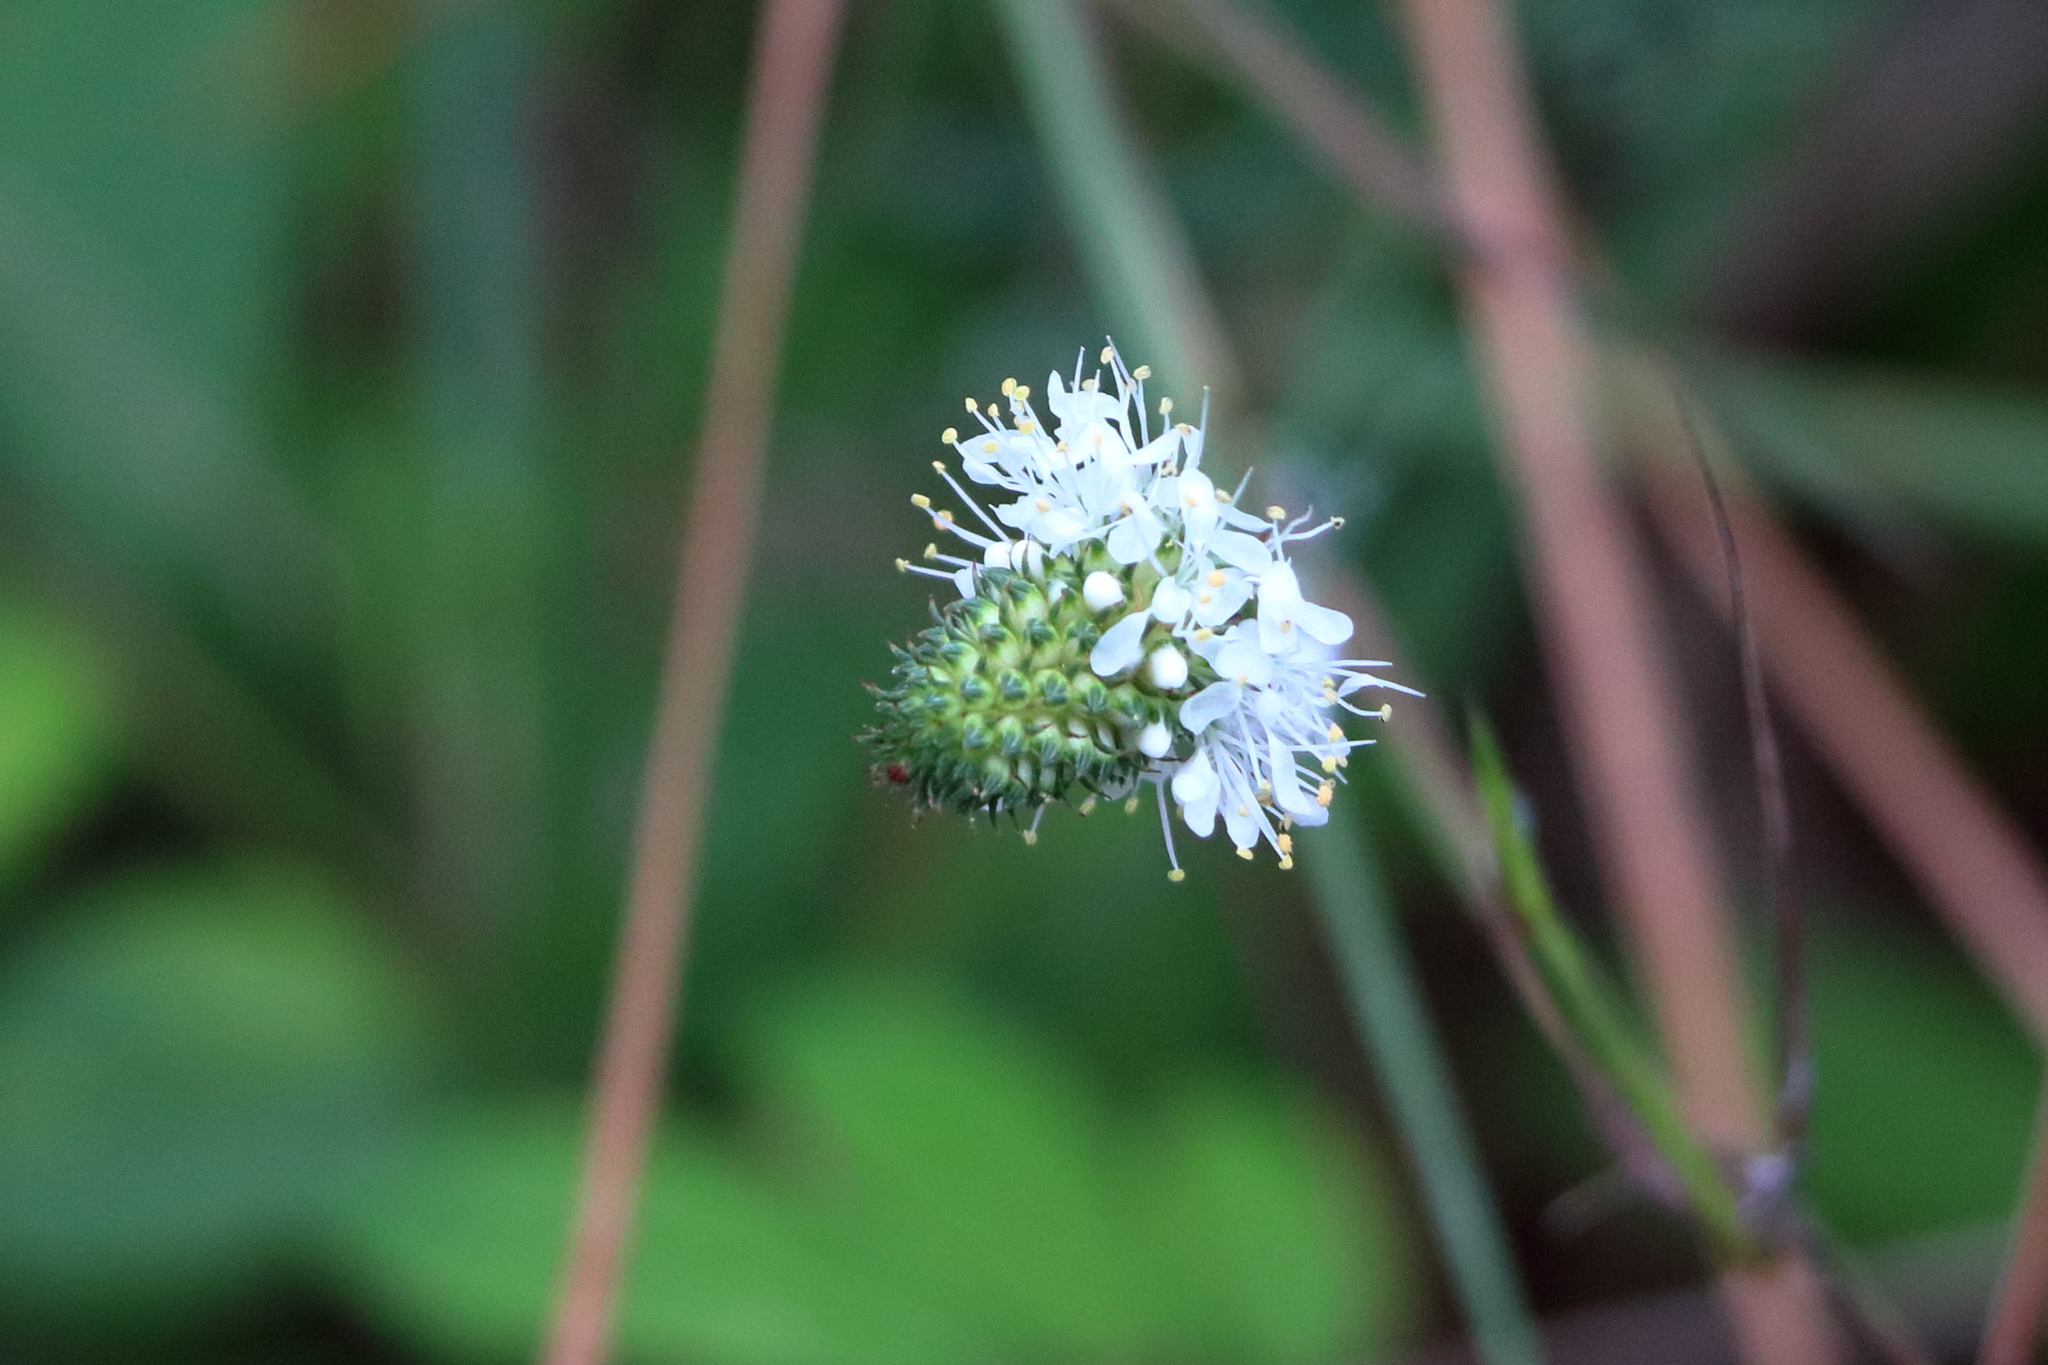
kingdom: Plantae
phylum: Tracheophyta
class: Magnoliopsida
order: Fabales
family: Fabaceae
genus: Dalea
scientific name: Dalea mountjoyae
